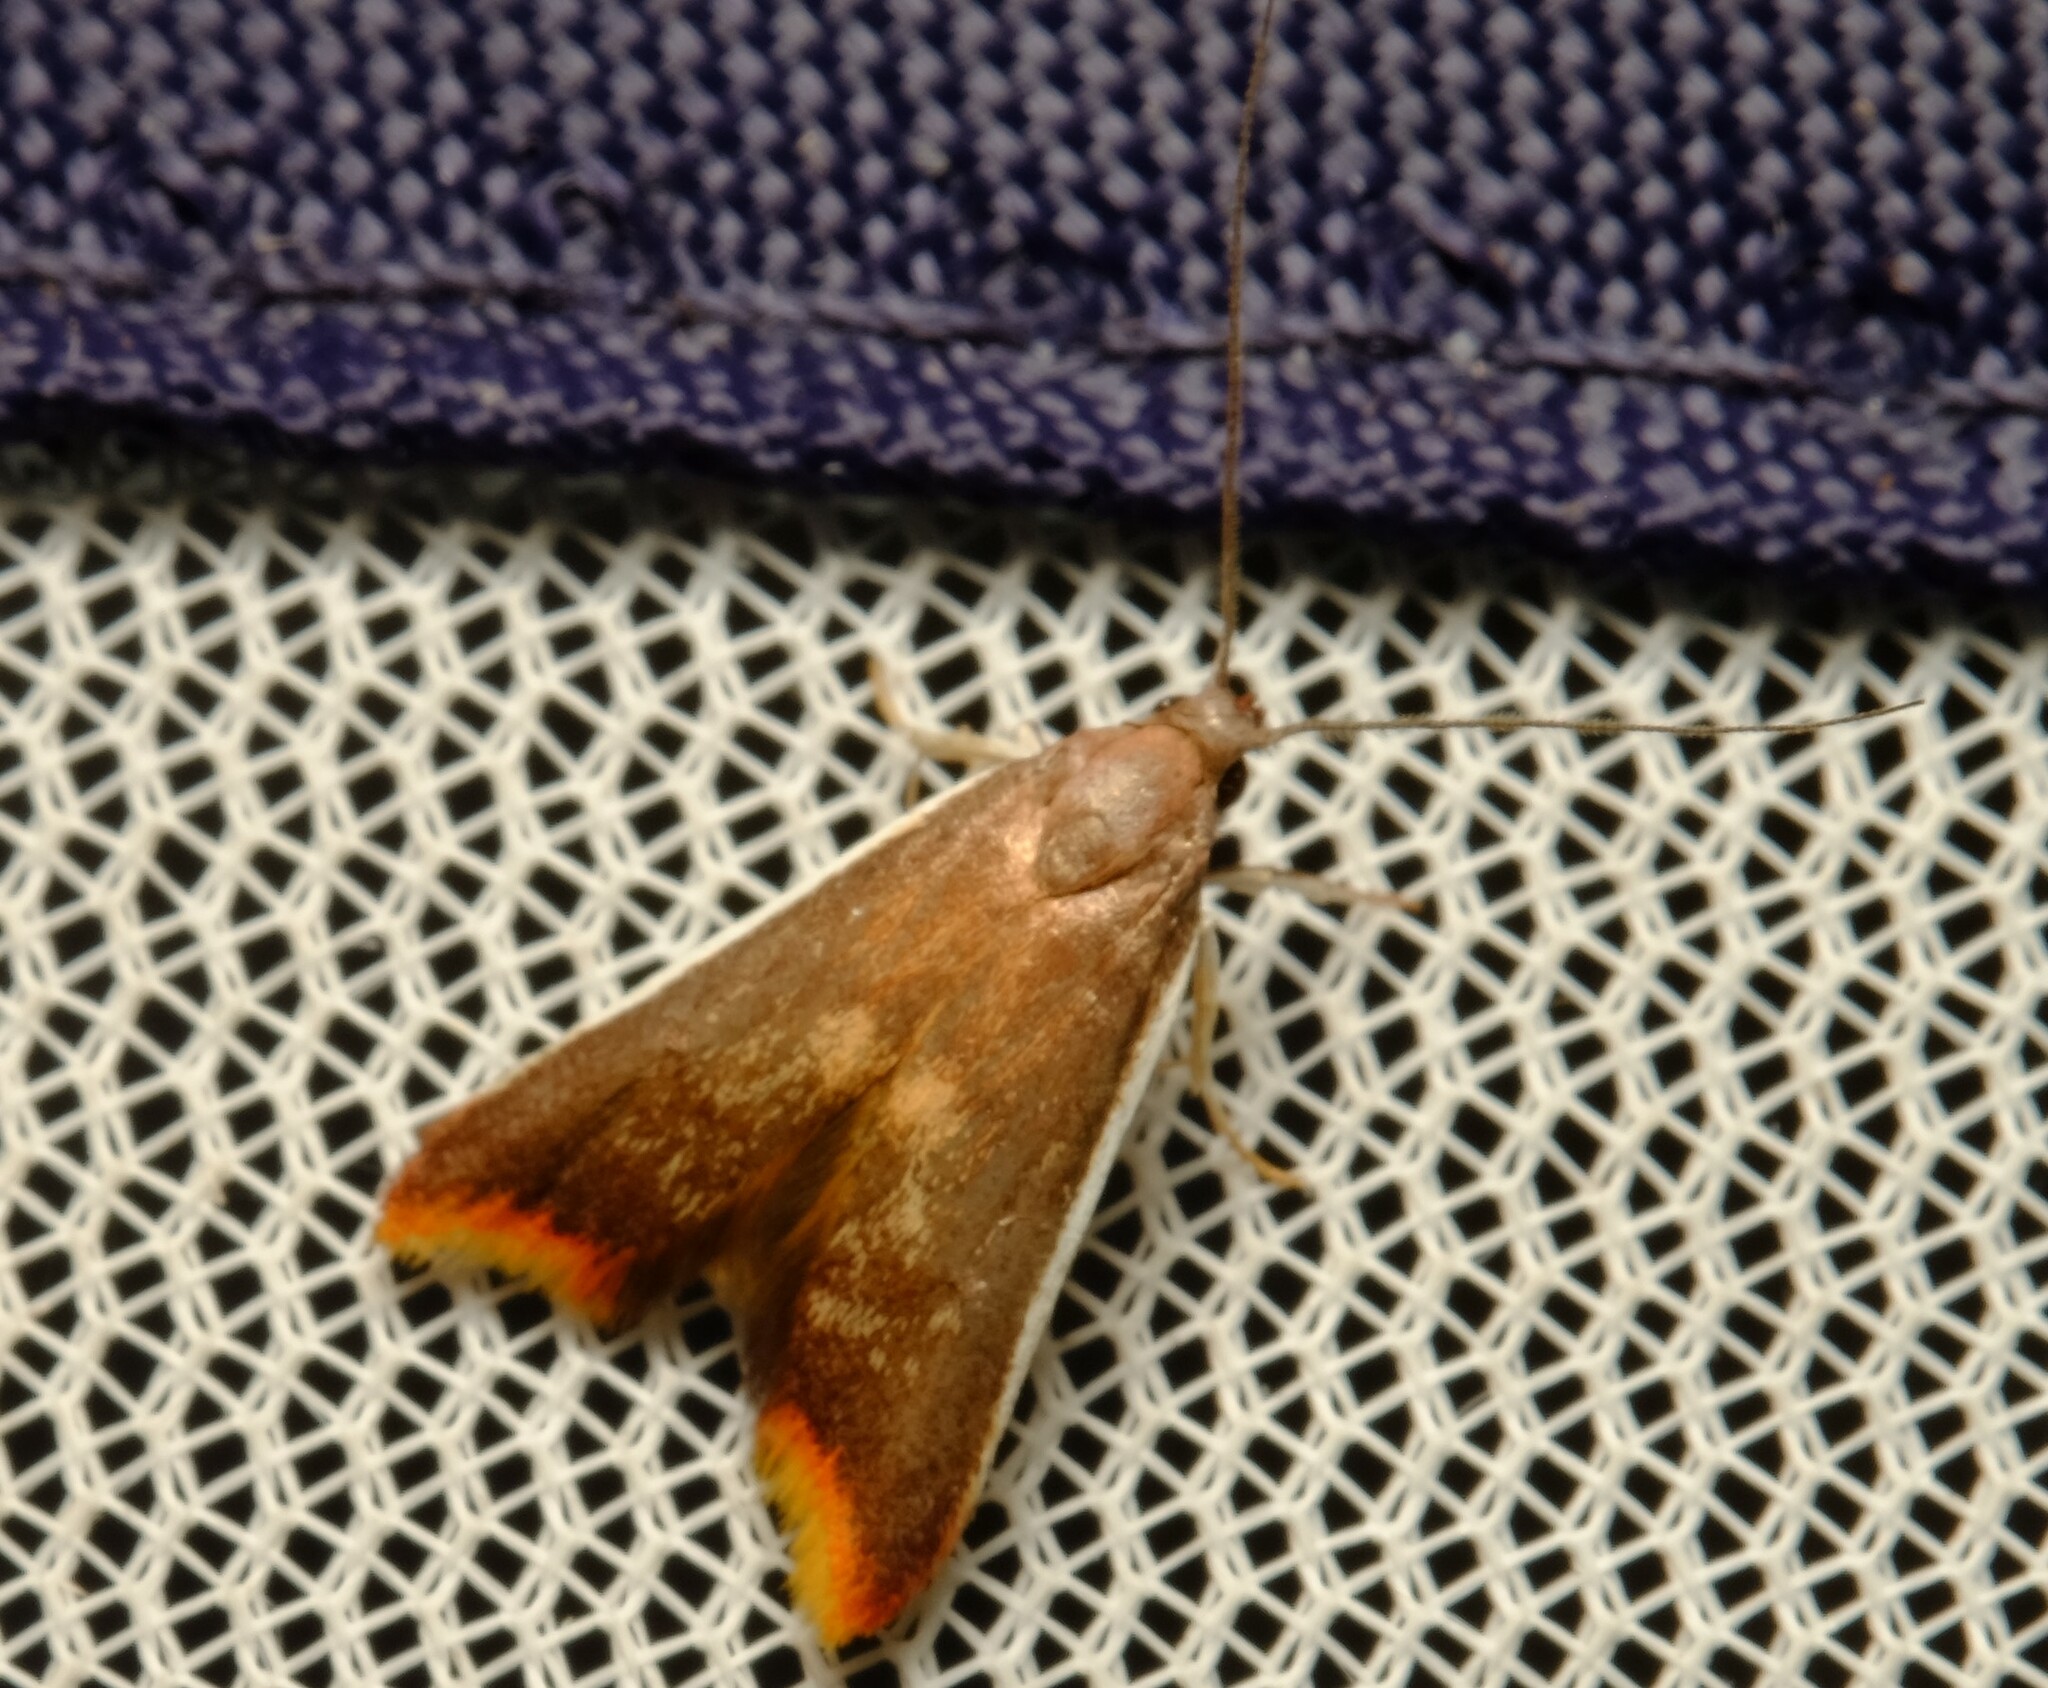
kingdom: Animalia
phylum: Arthropoda
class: Insecta
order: Lepidoptera
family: Oecophoridae
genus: Hemibela
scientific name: Hemibela callista
